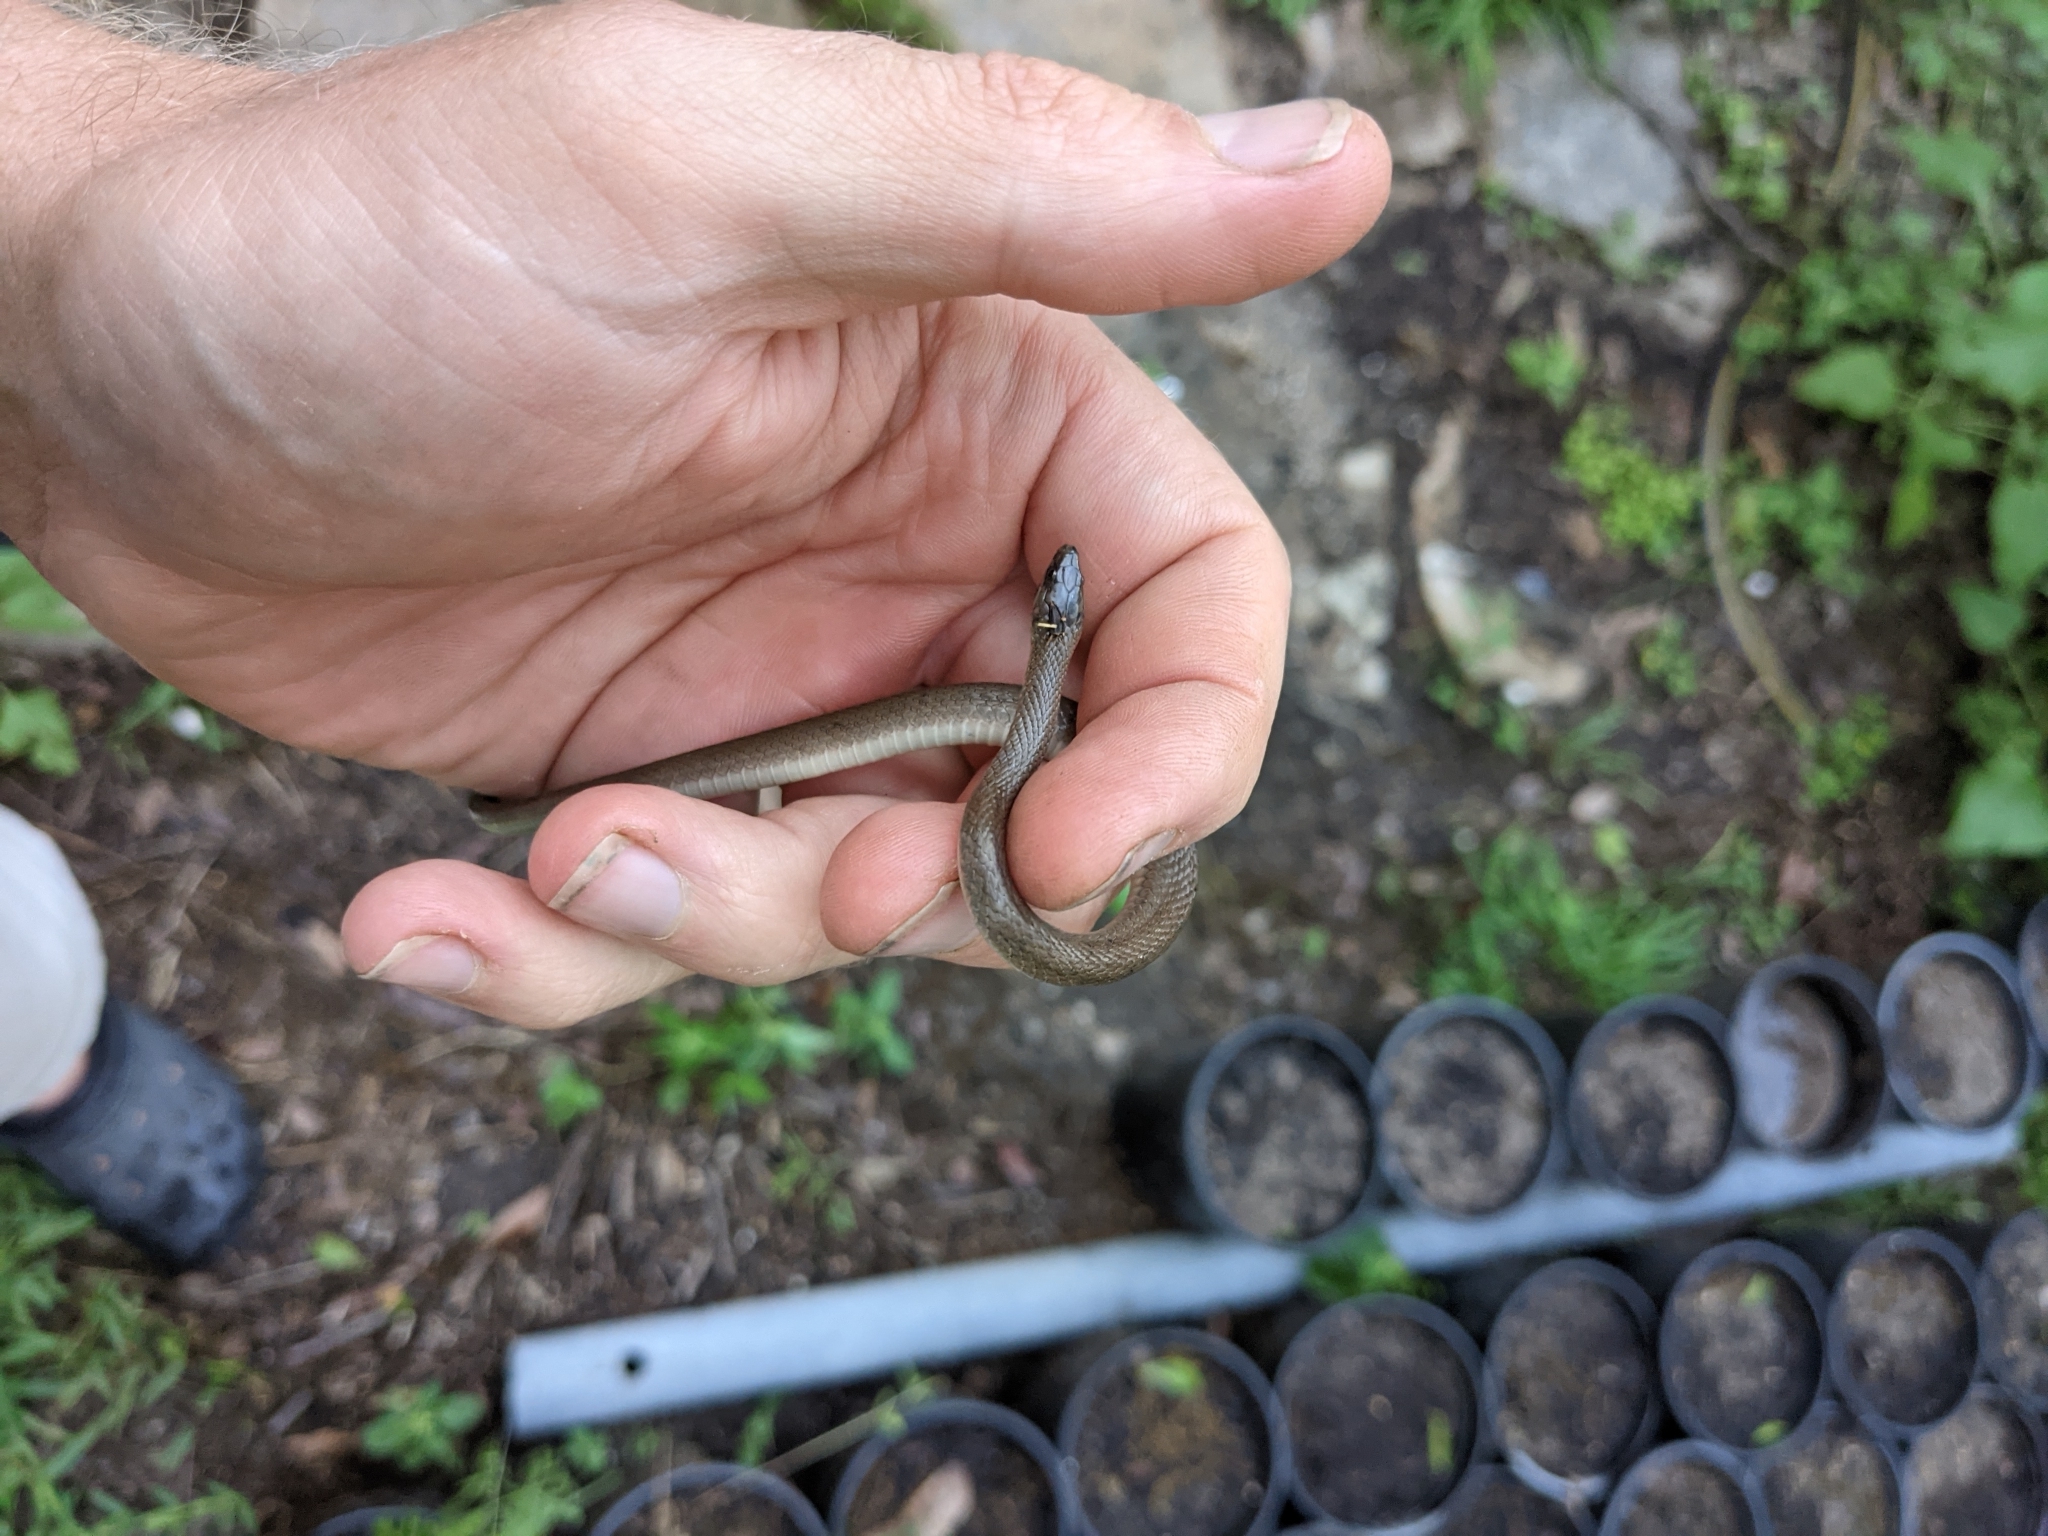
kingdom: Animalia
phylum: Chordata
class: Squamata
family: Colubridae
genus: Haldea
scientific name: Haldea striatula
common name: Rough earth snake
